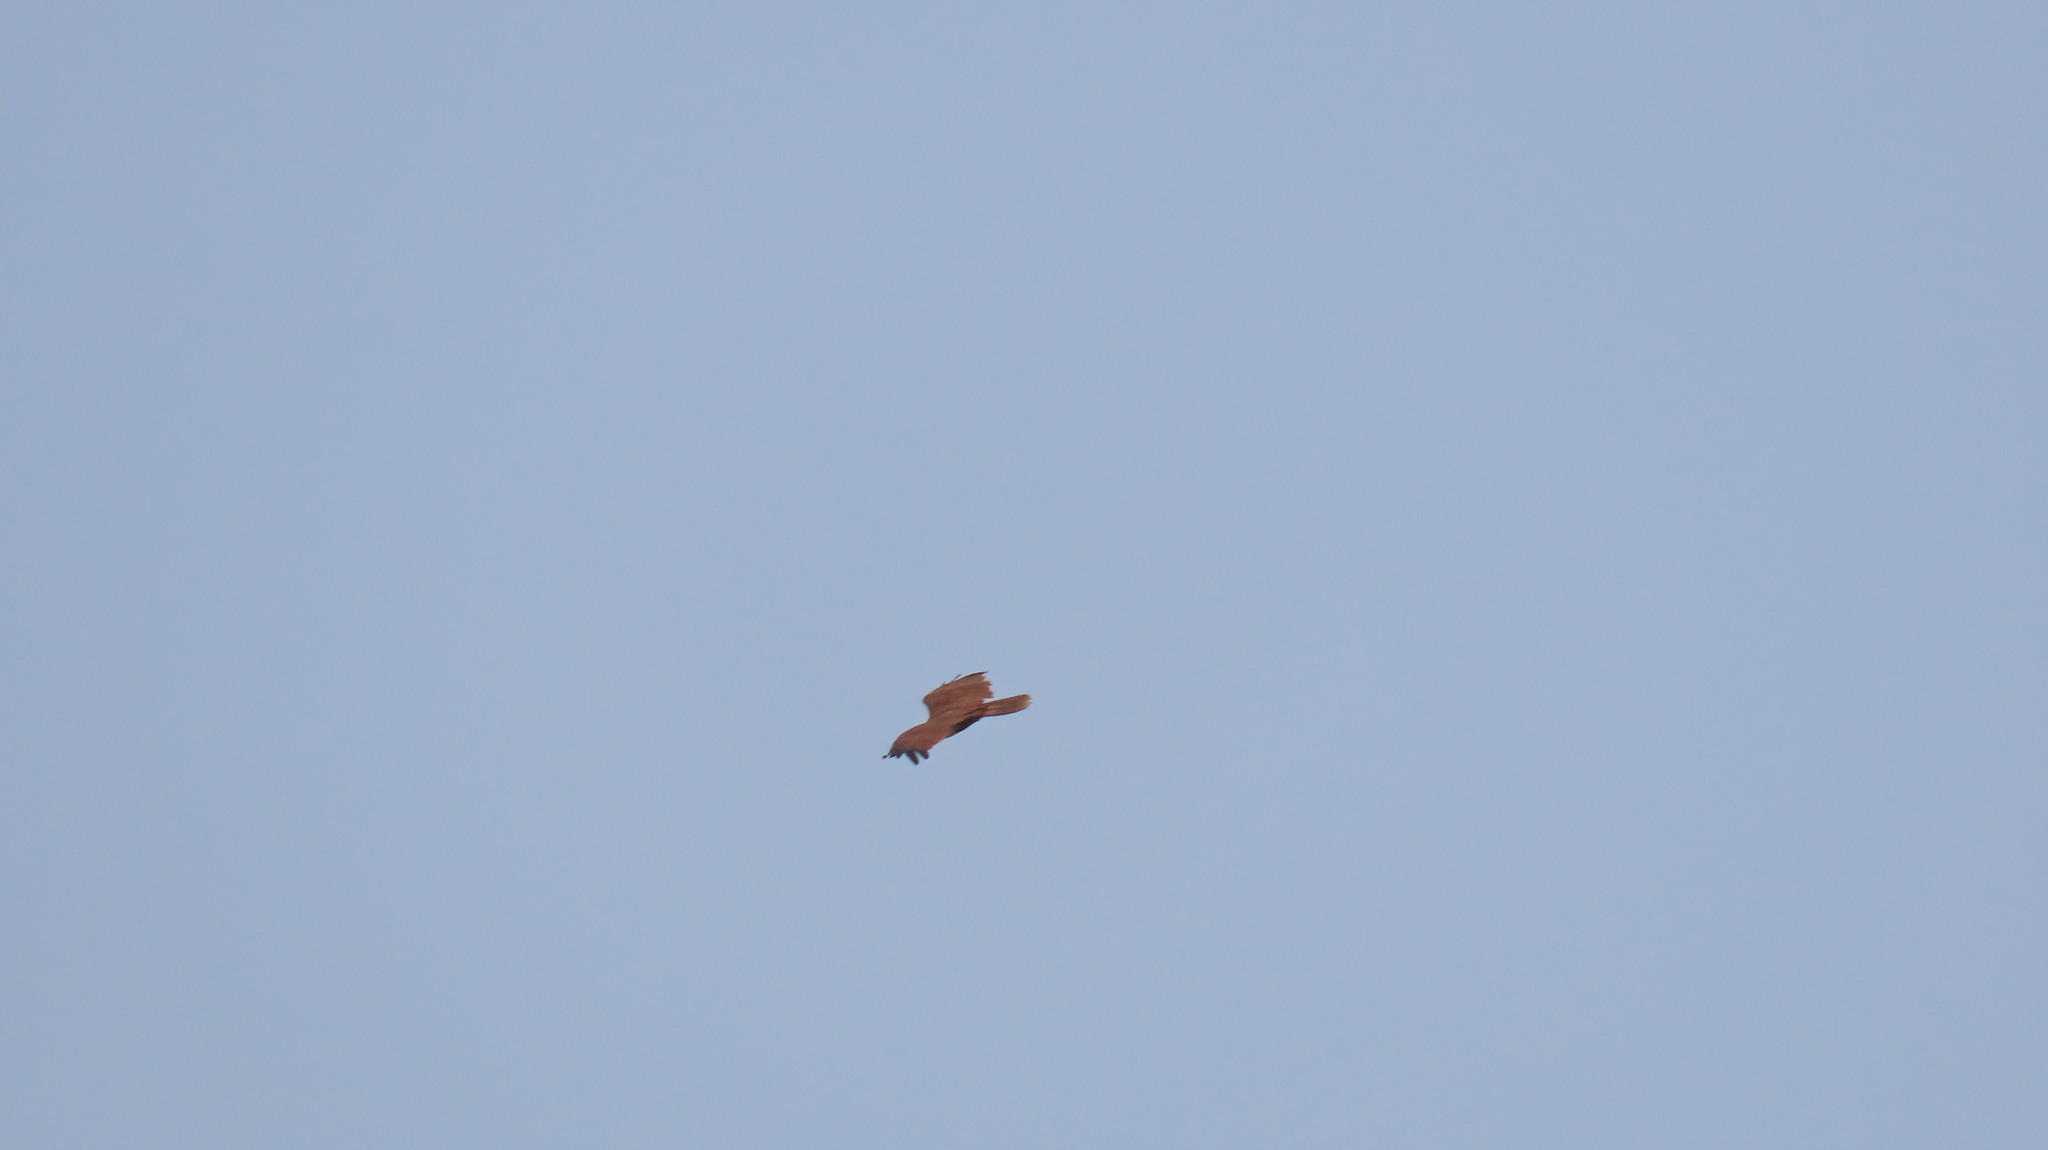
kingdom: Animalia
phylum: Chordata
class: Aves
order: Accipitriformes
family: Accipitridae
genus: Haliastur
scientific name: Haliastur indus
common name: Brahminy kite
